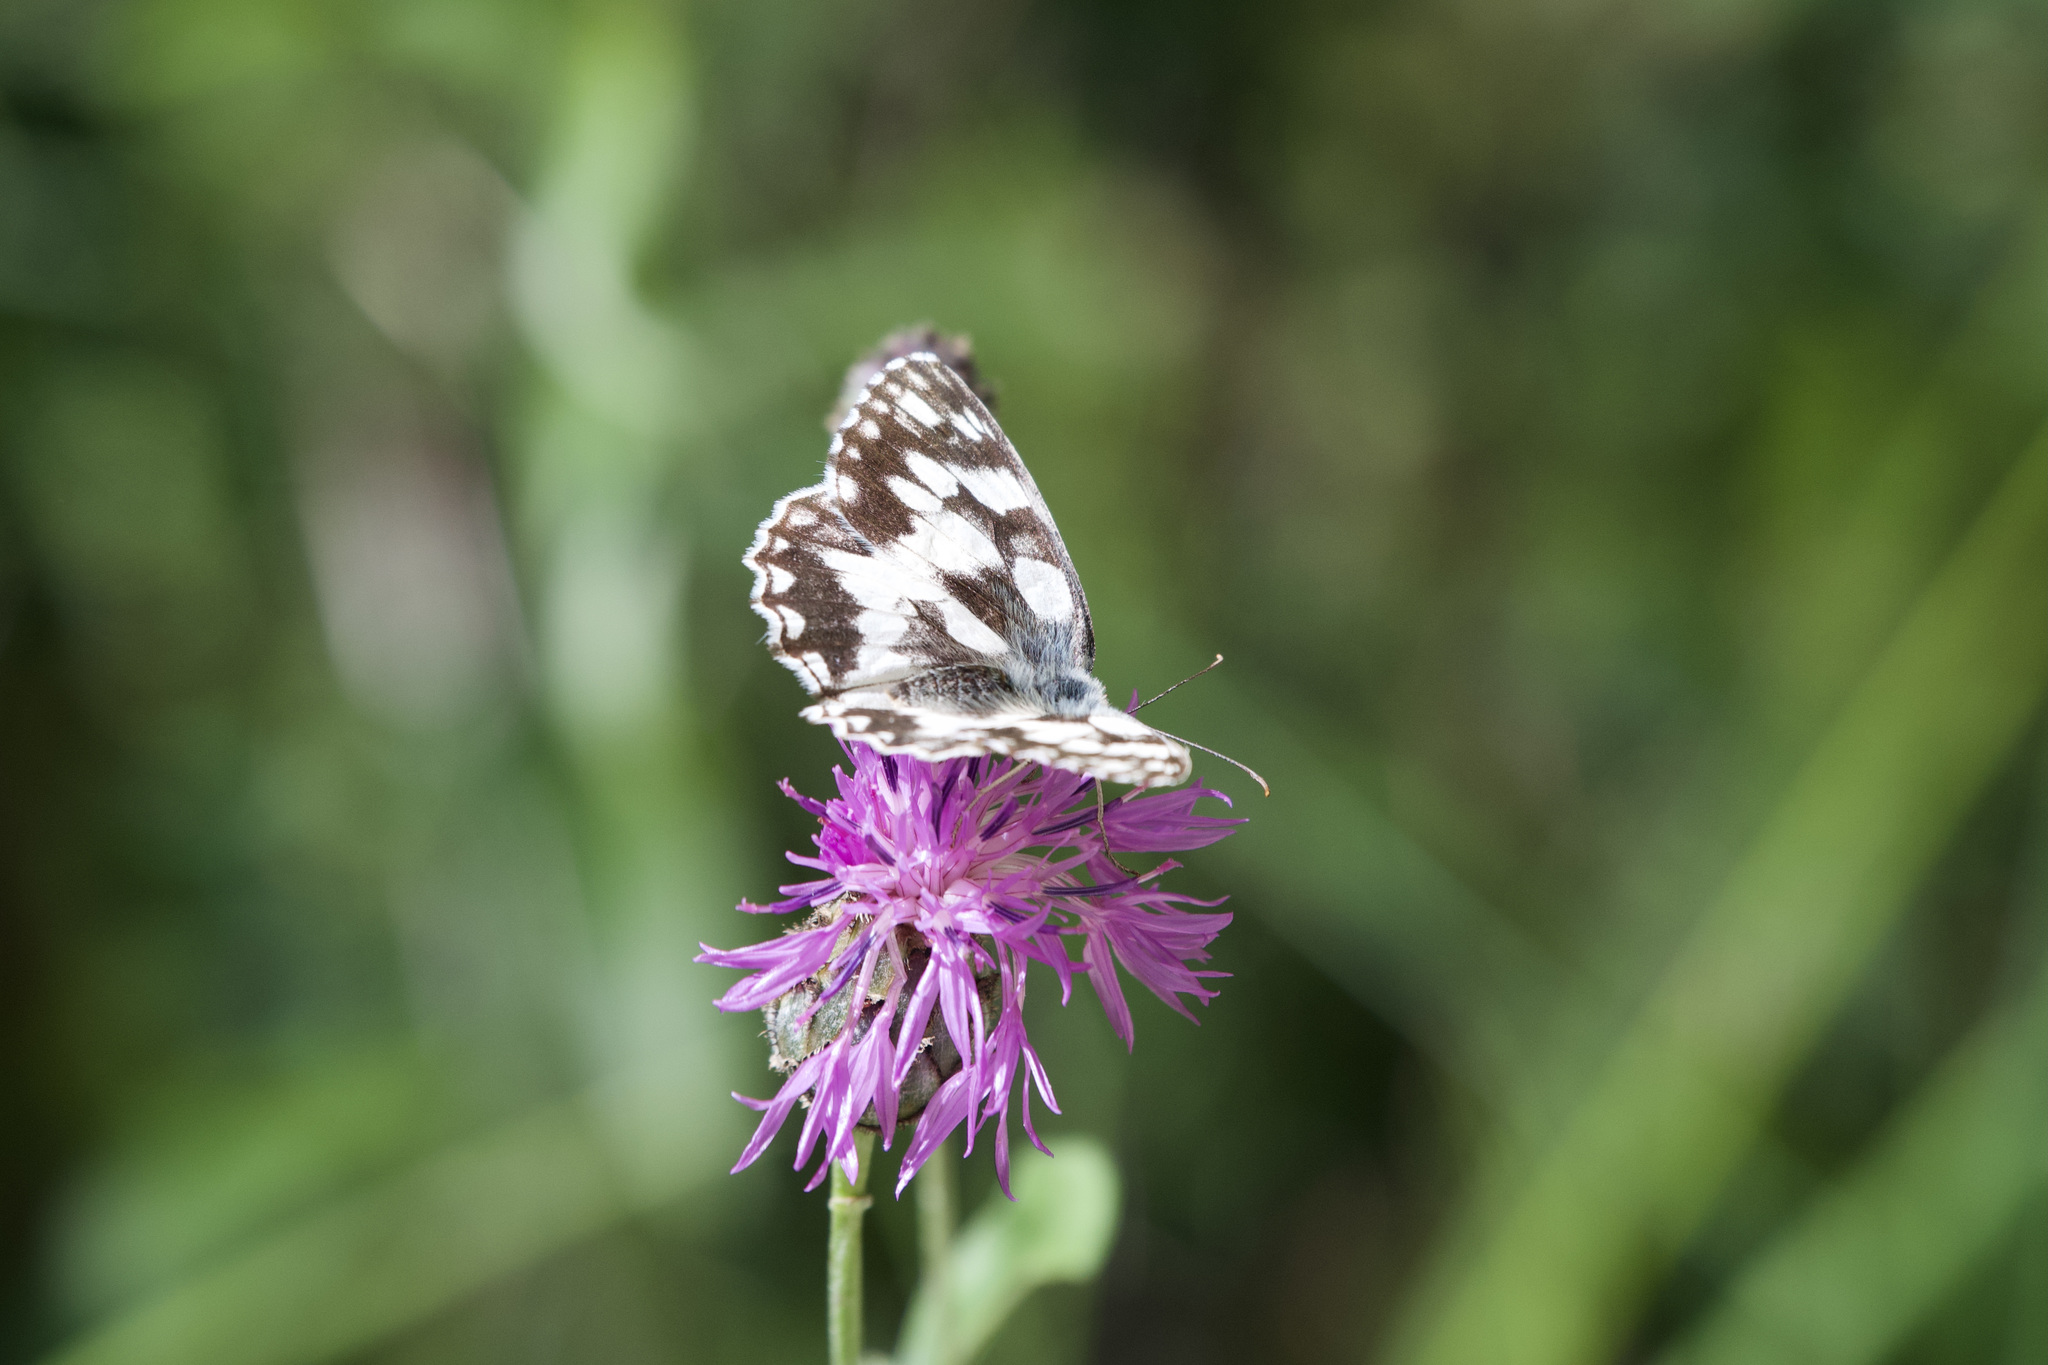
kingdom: Animalia
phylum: Arthropoda
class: Insecta
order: Lepidoptera
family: Nymphalidae
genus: Melanargia
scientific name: Melanargia galathea
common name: Marbled white
